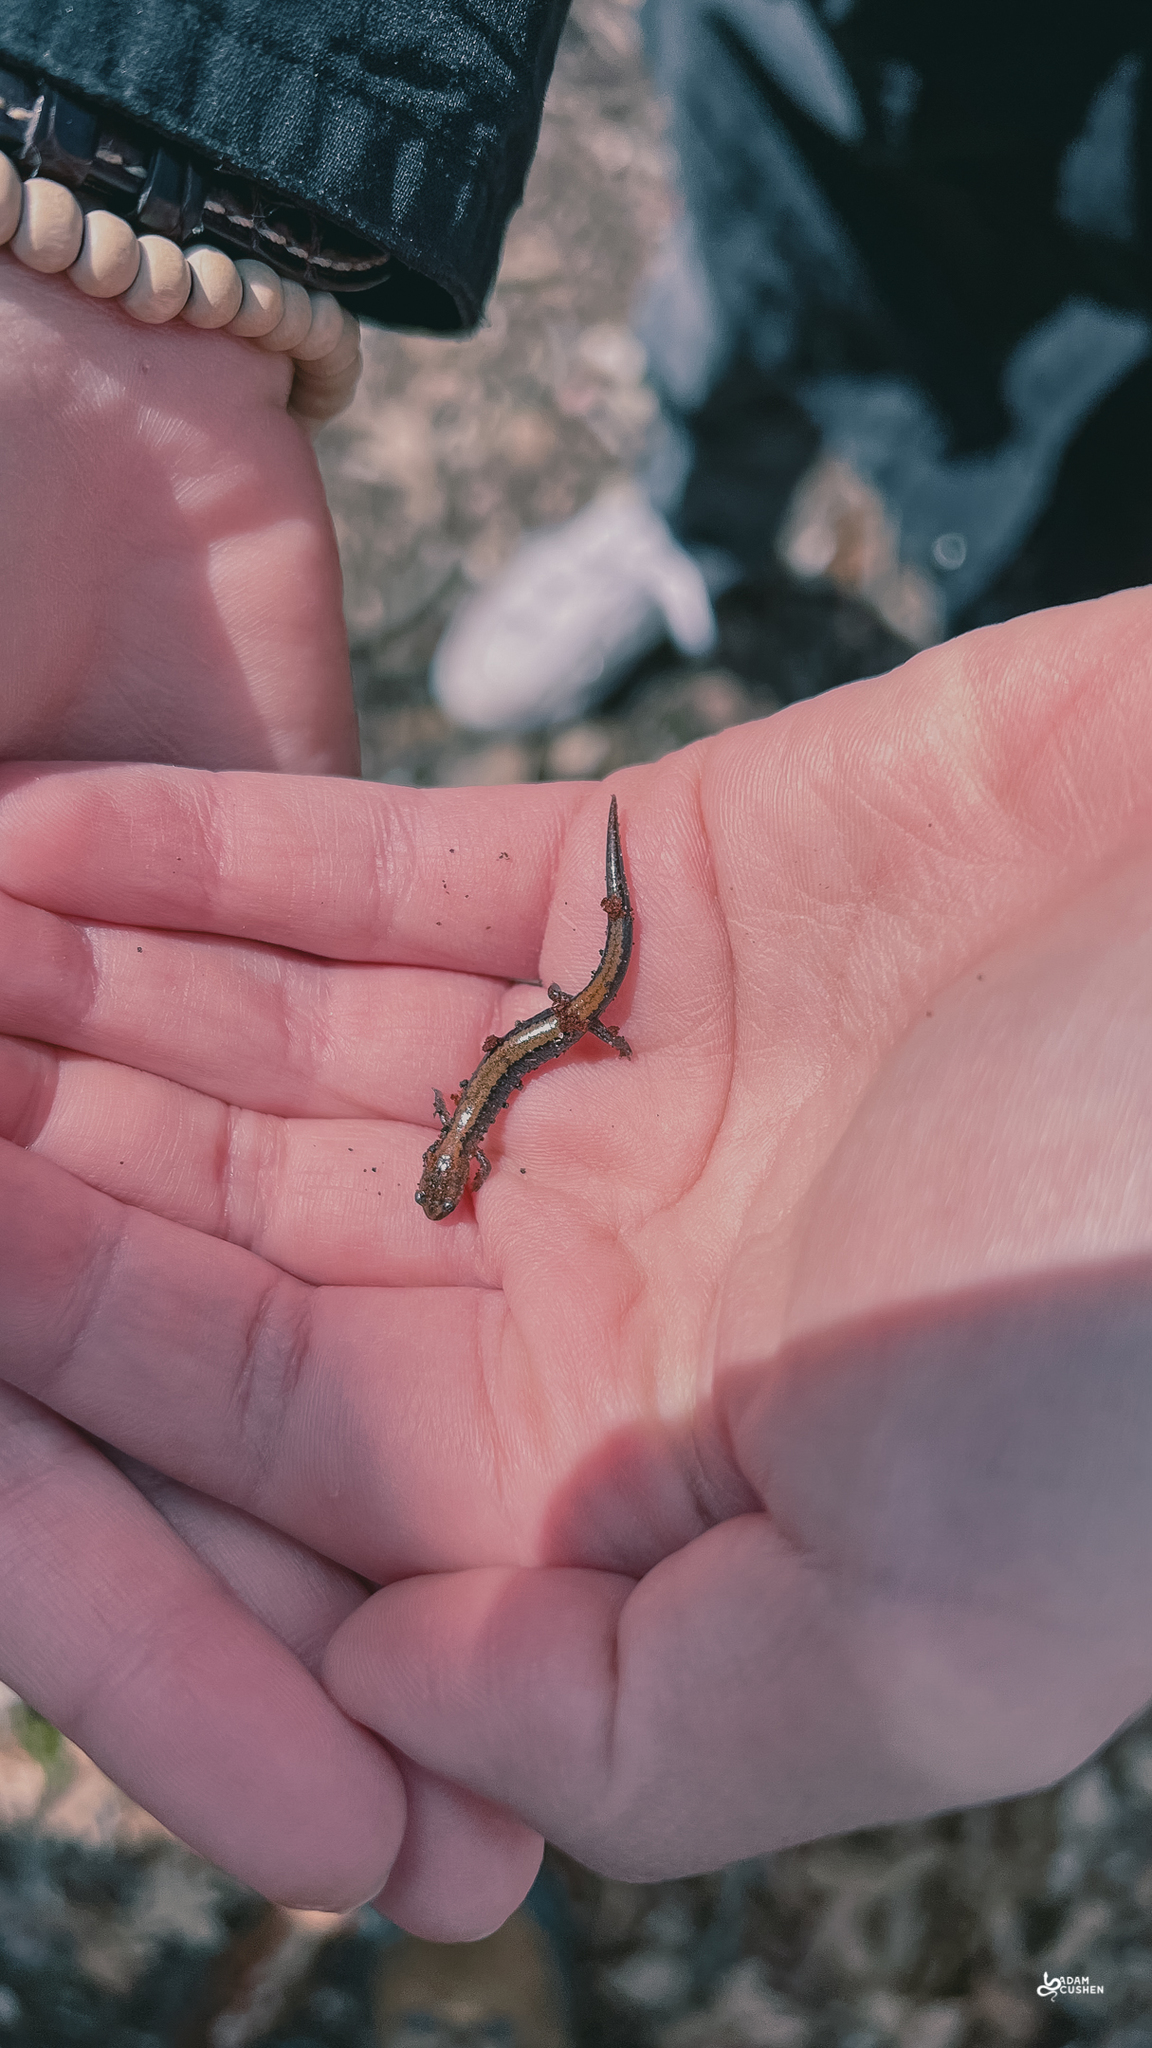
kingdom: Animalia
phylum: Chordata
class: Amphibia
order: Caudata
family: Plethodontidae
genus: Plethodon
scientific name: Plethodon cinereus
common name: Redback salamander
